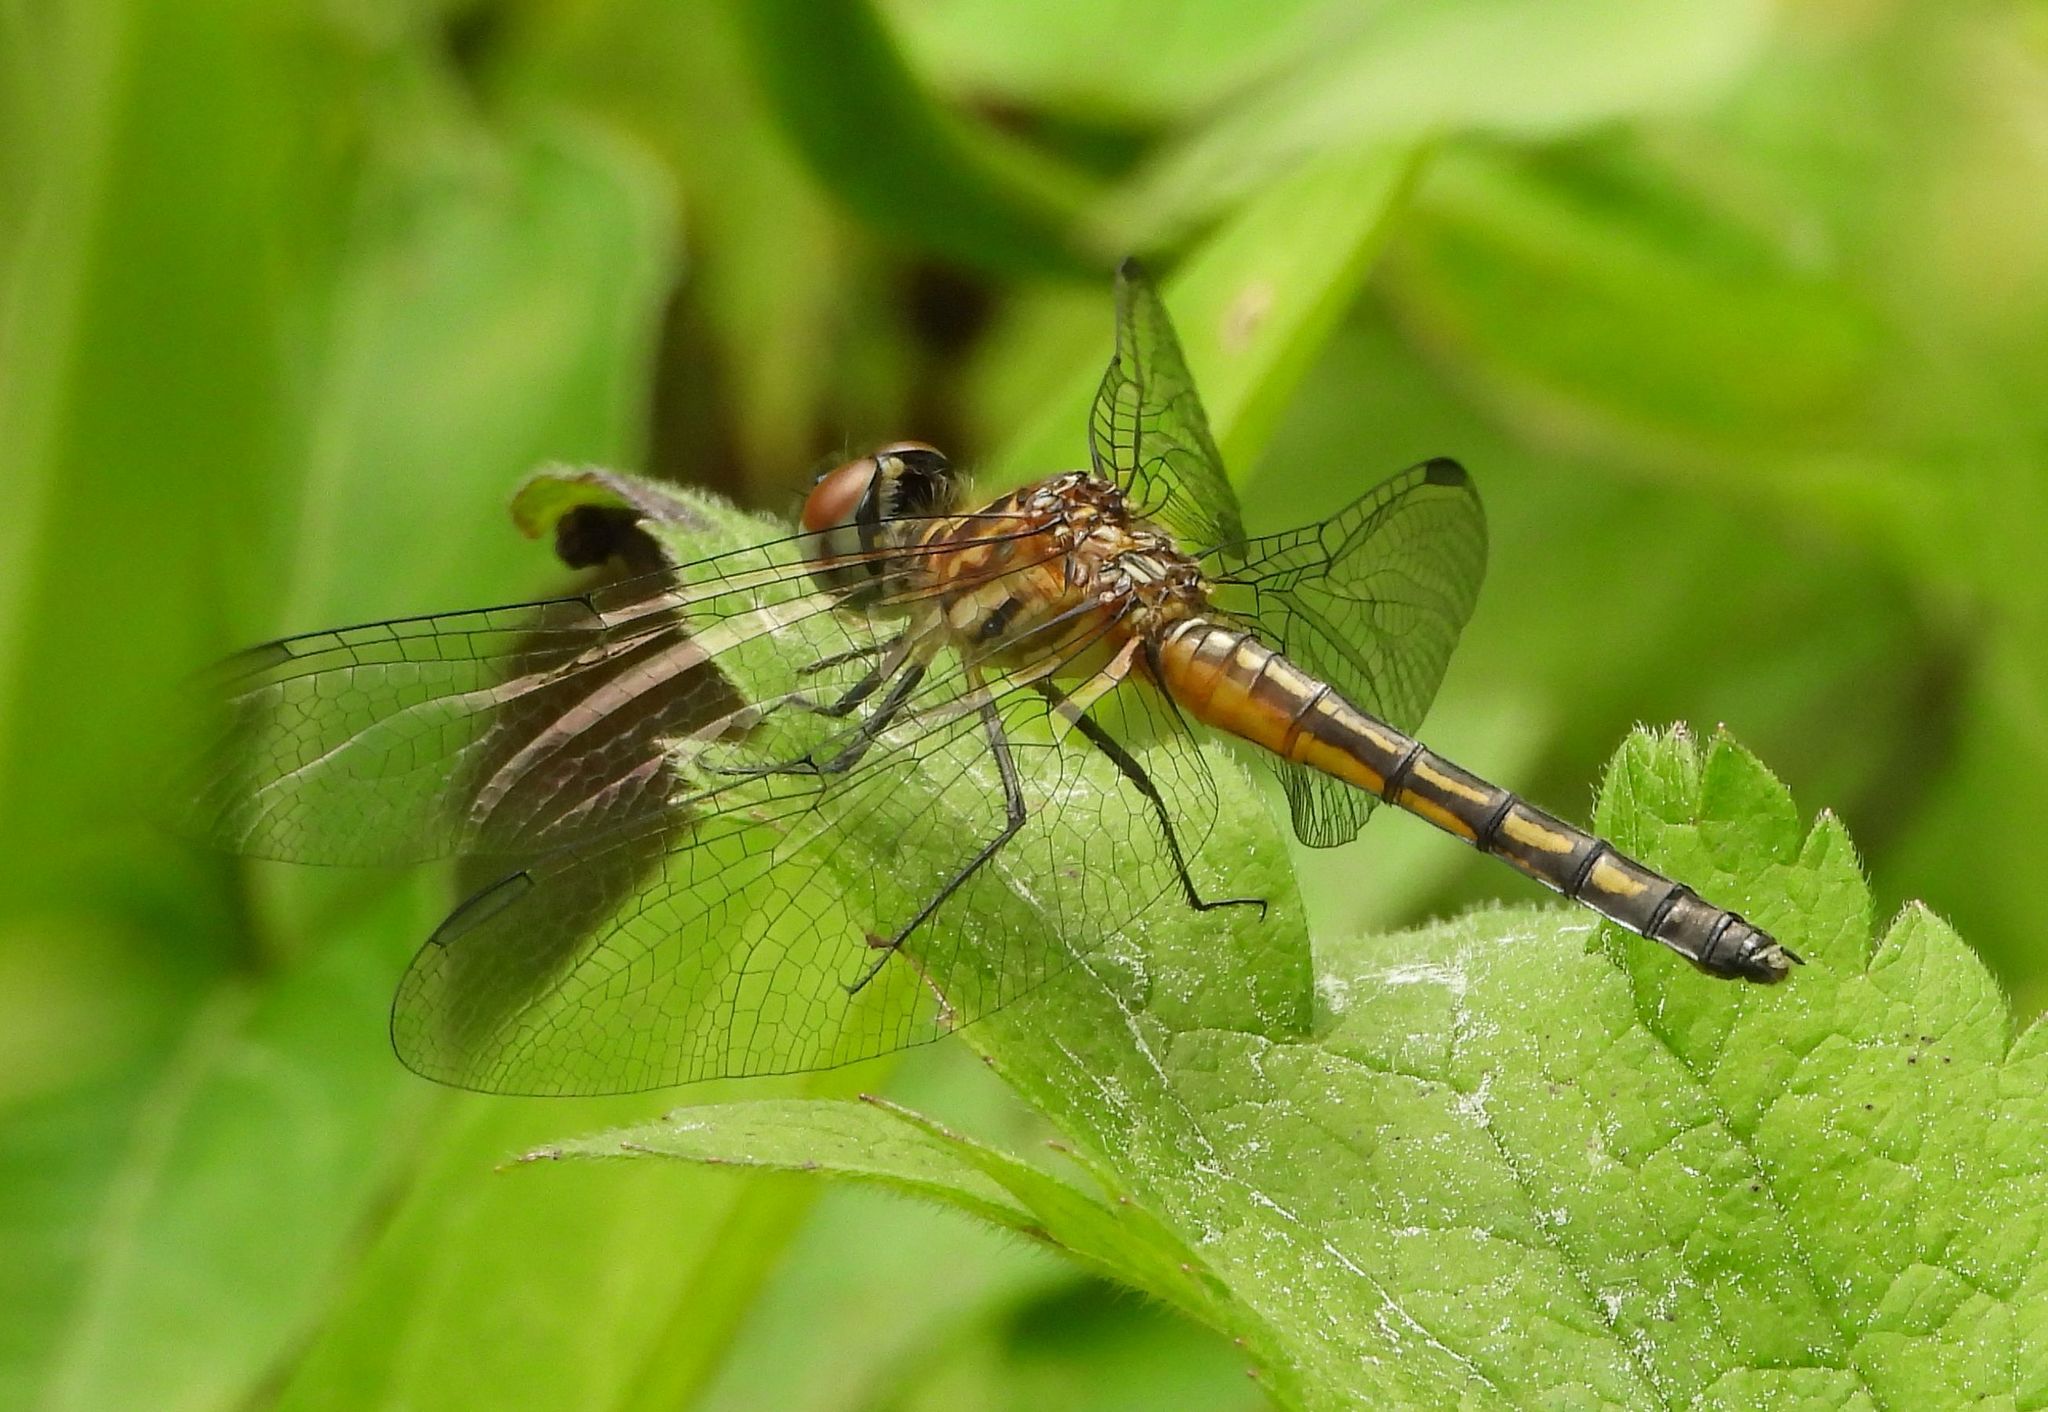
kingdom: Animalia
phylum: Arthropoda
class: Insecta
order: Odonata
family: Libellulidae
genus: Pachydiplax
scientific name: Pachydiplax longipennis
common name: Blue dasher
